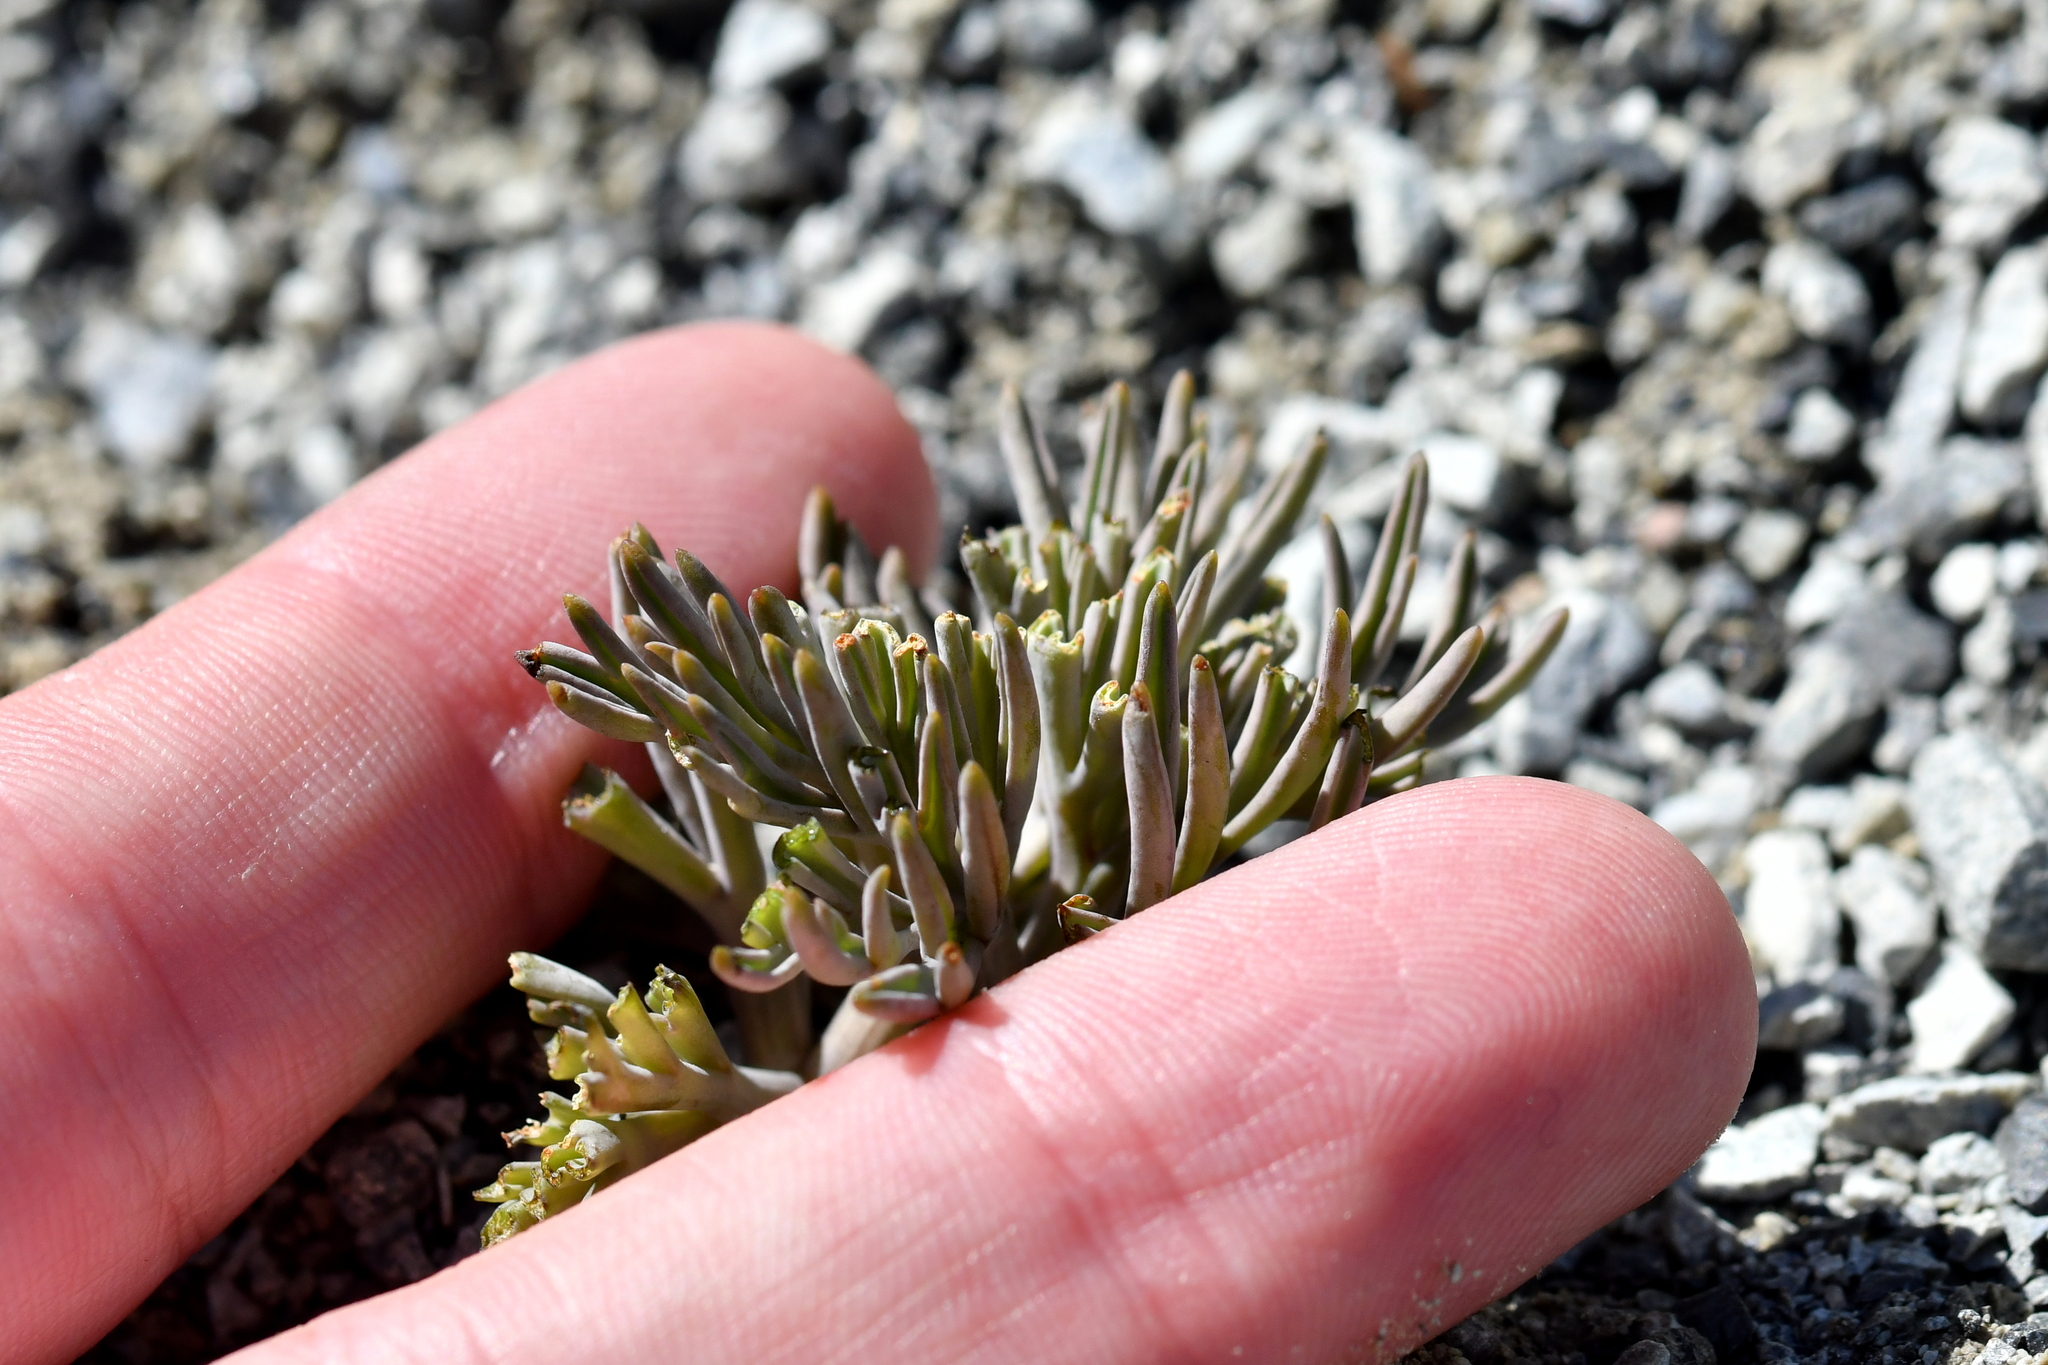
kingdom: Plantae
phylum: Tracheophyta
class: Magnoliopsida
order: Apiales
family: Apiaceae
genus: Lignocarpa
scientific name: Lignocarpa carnosula
